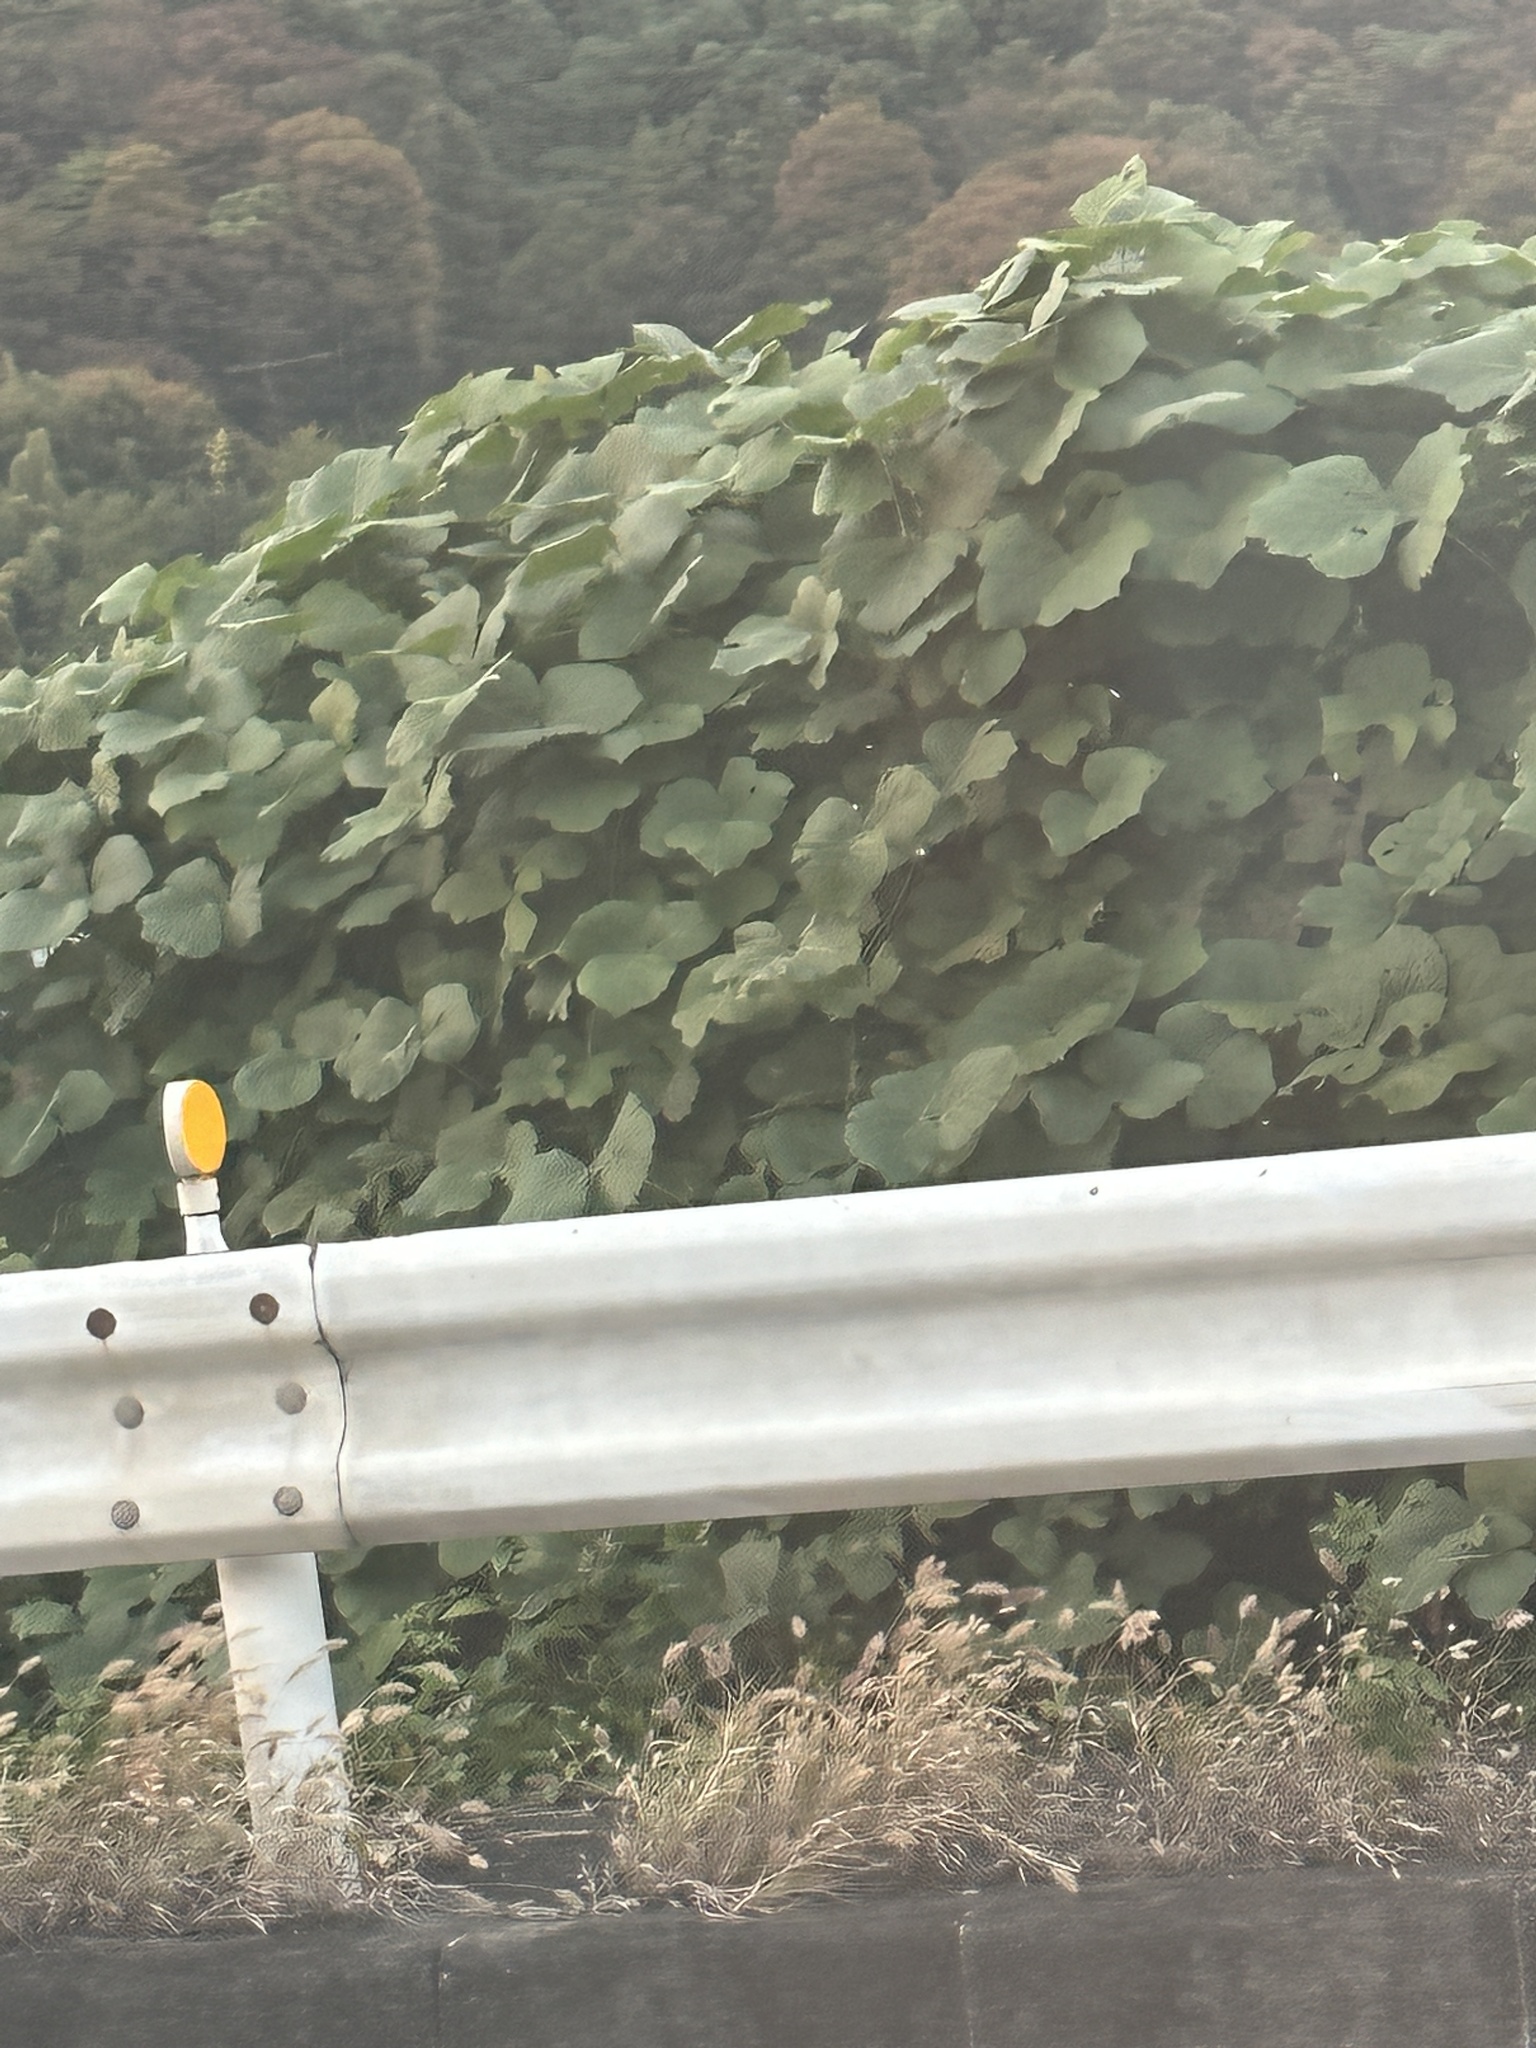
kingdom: Plantae
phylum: Tracheophyta
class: Magnoliopsida
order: Fabales
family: Fabaceae
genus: Pueraria
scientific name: Pueraria montana
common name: Kudzu
